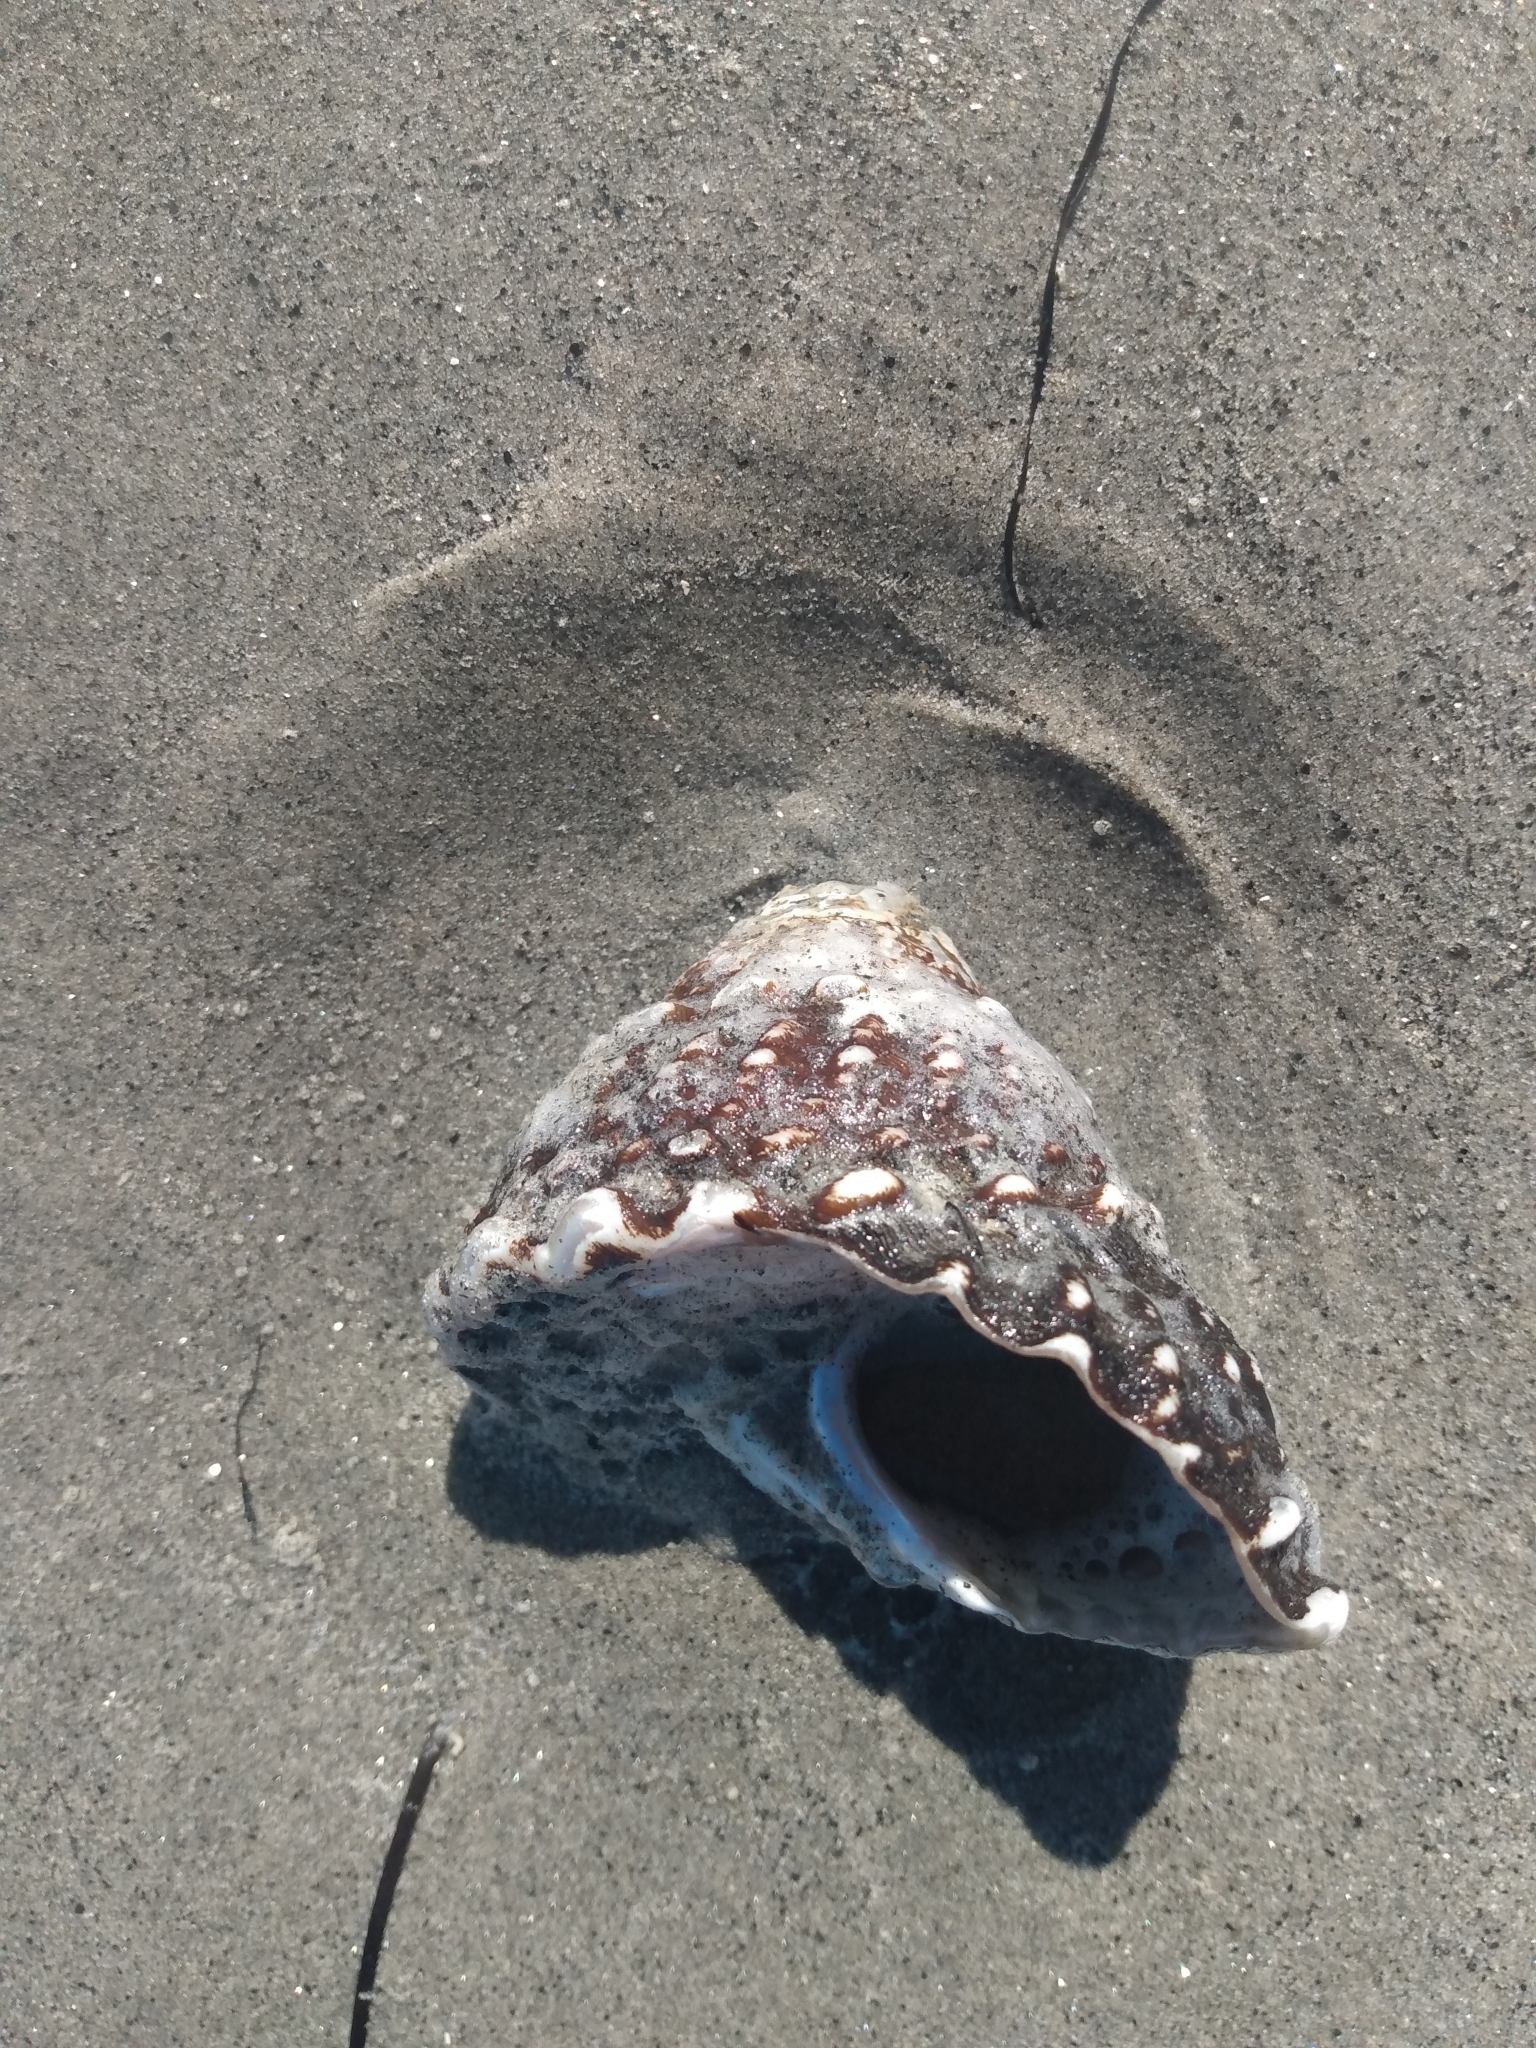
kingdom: Animalia
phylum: Mollusca
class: Gastropoda
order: Trochida
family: Turbinidae
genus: Megastraea
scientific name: Megastraea undosa
